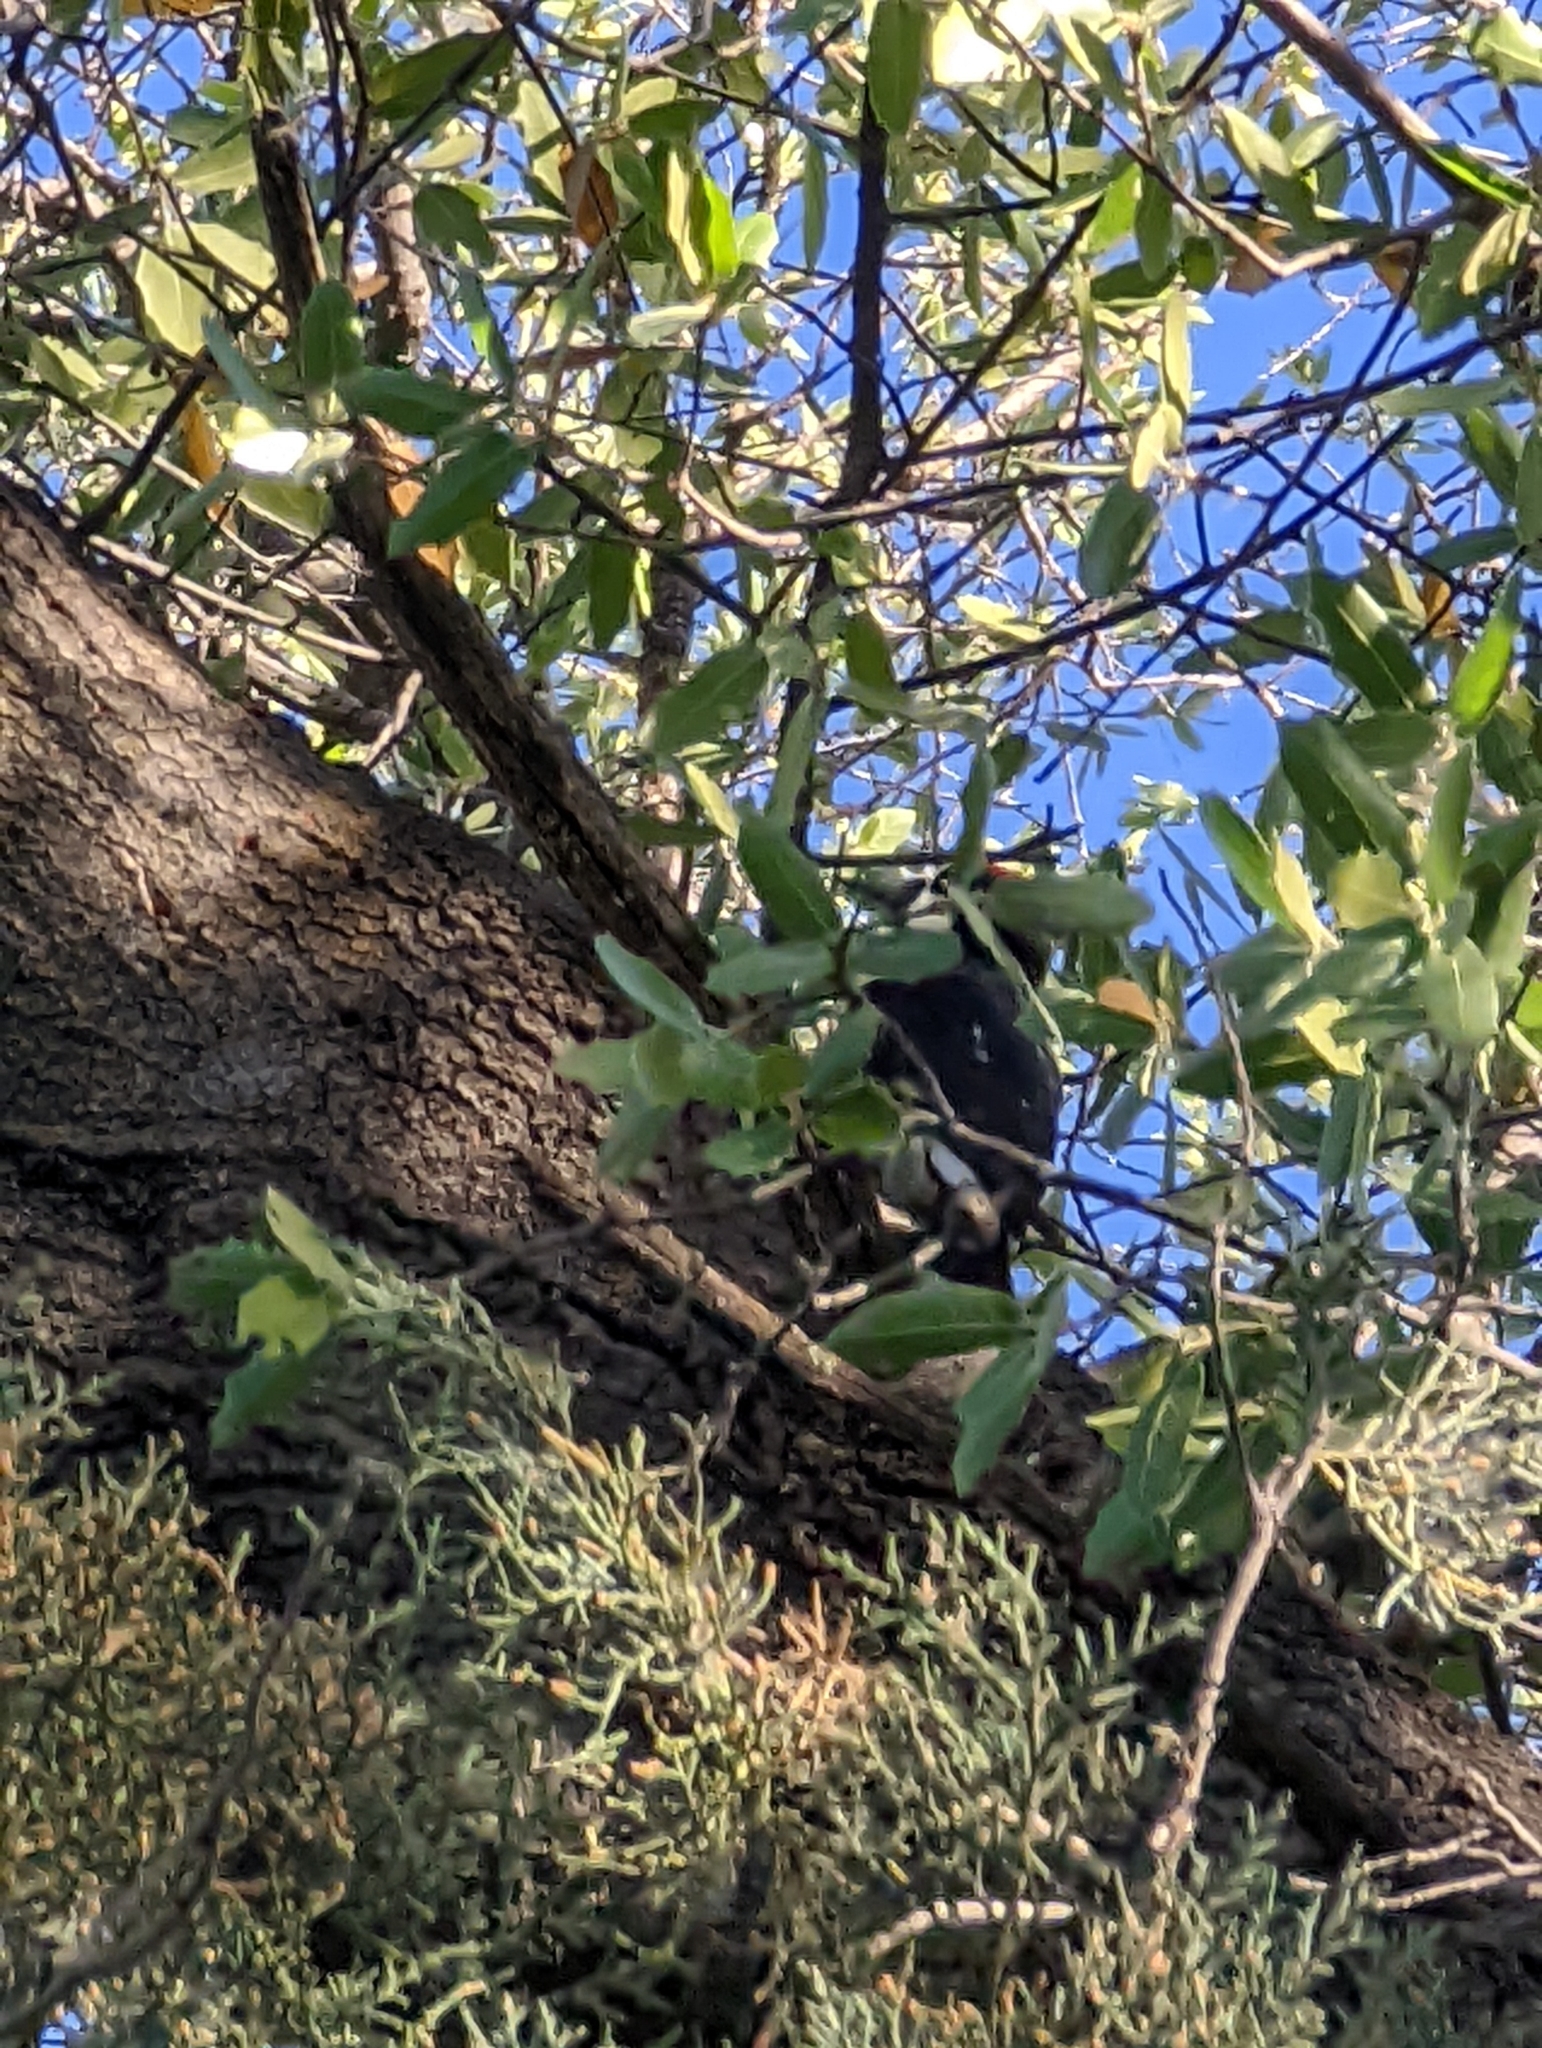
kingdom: Animalia
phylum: Chordata
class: Aves
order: Piciformes
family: Picidae
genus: Melanerpes
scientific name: Melanerpes formicivorus
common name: Acorn woodpecker
